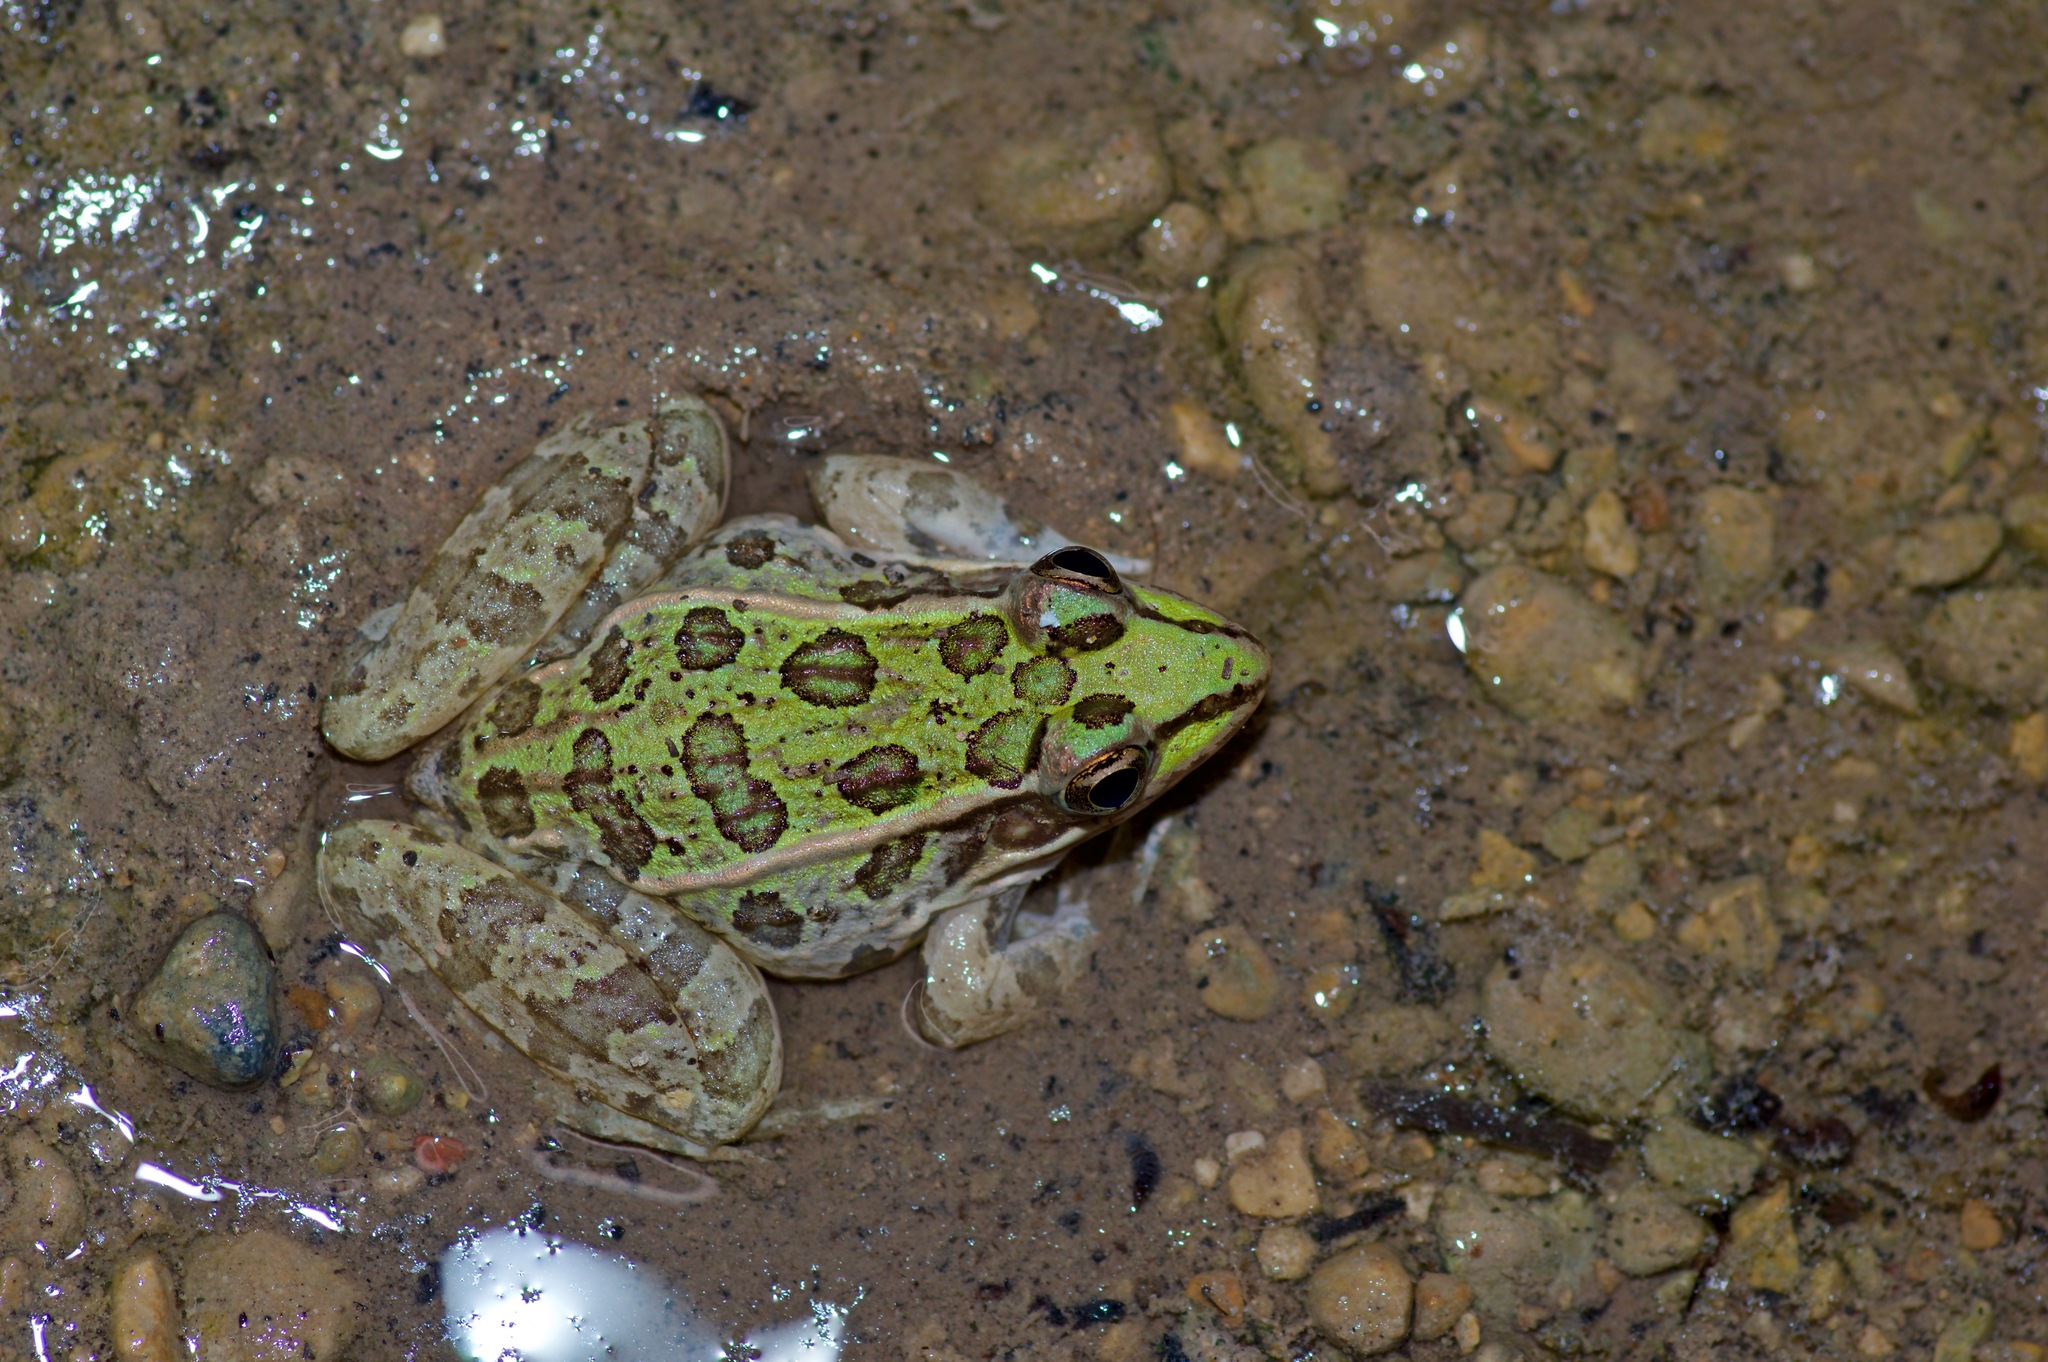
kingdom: Animalia
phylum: Chordata
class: Amphibia
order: Anura
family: Ranidae
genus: Lithobates
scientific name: Lithobates berlandieri
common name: Rio grande leopard frog
